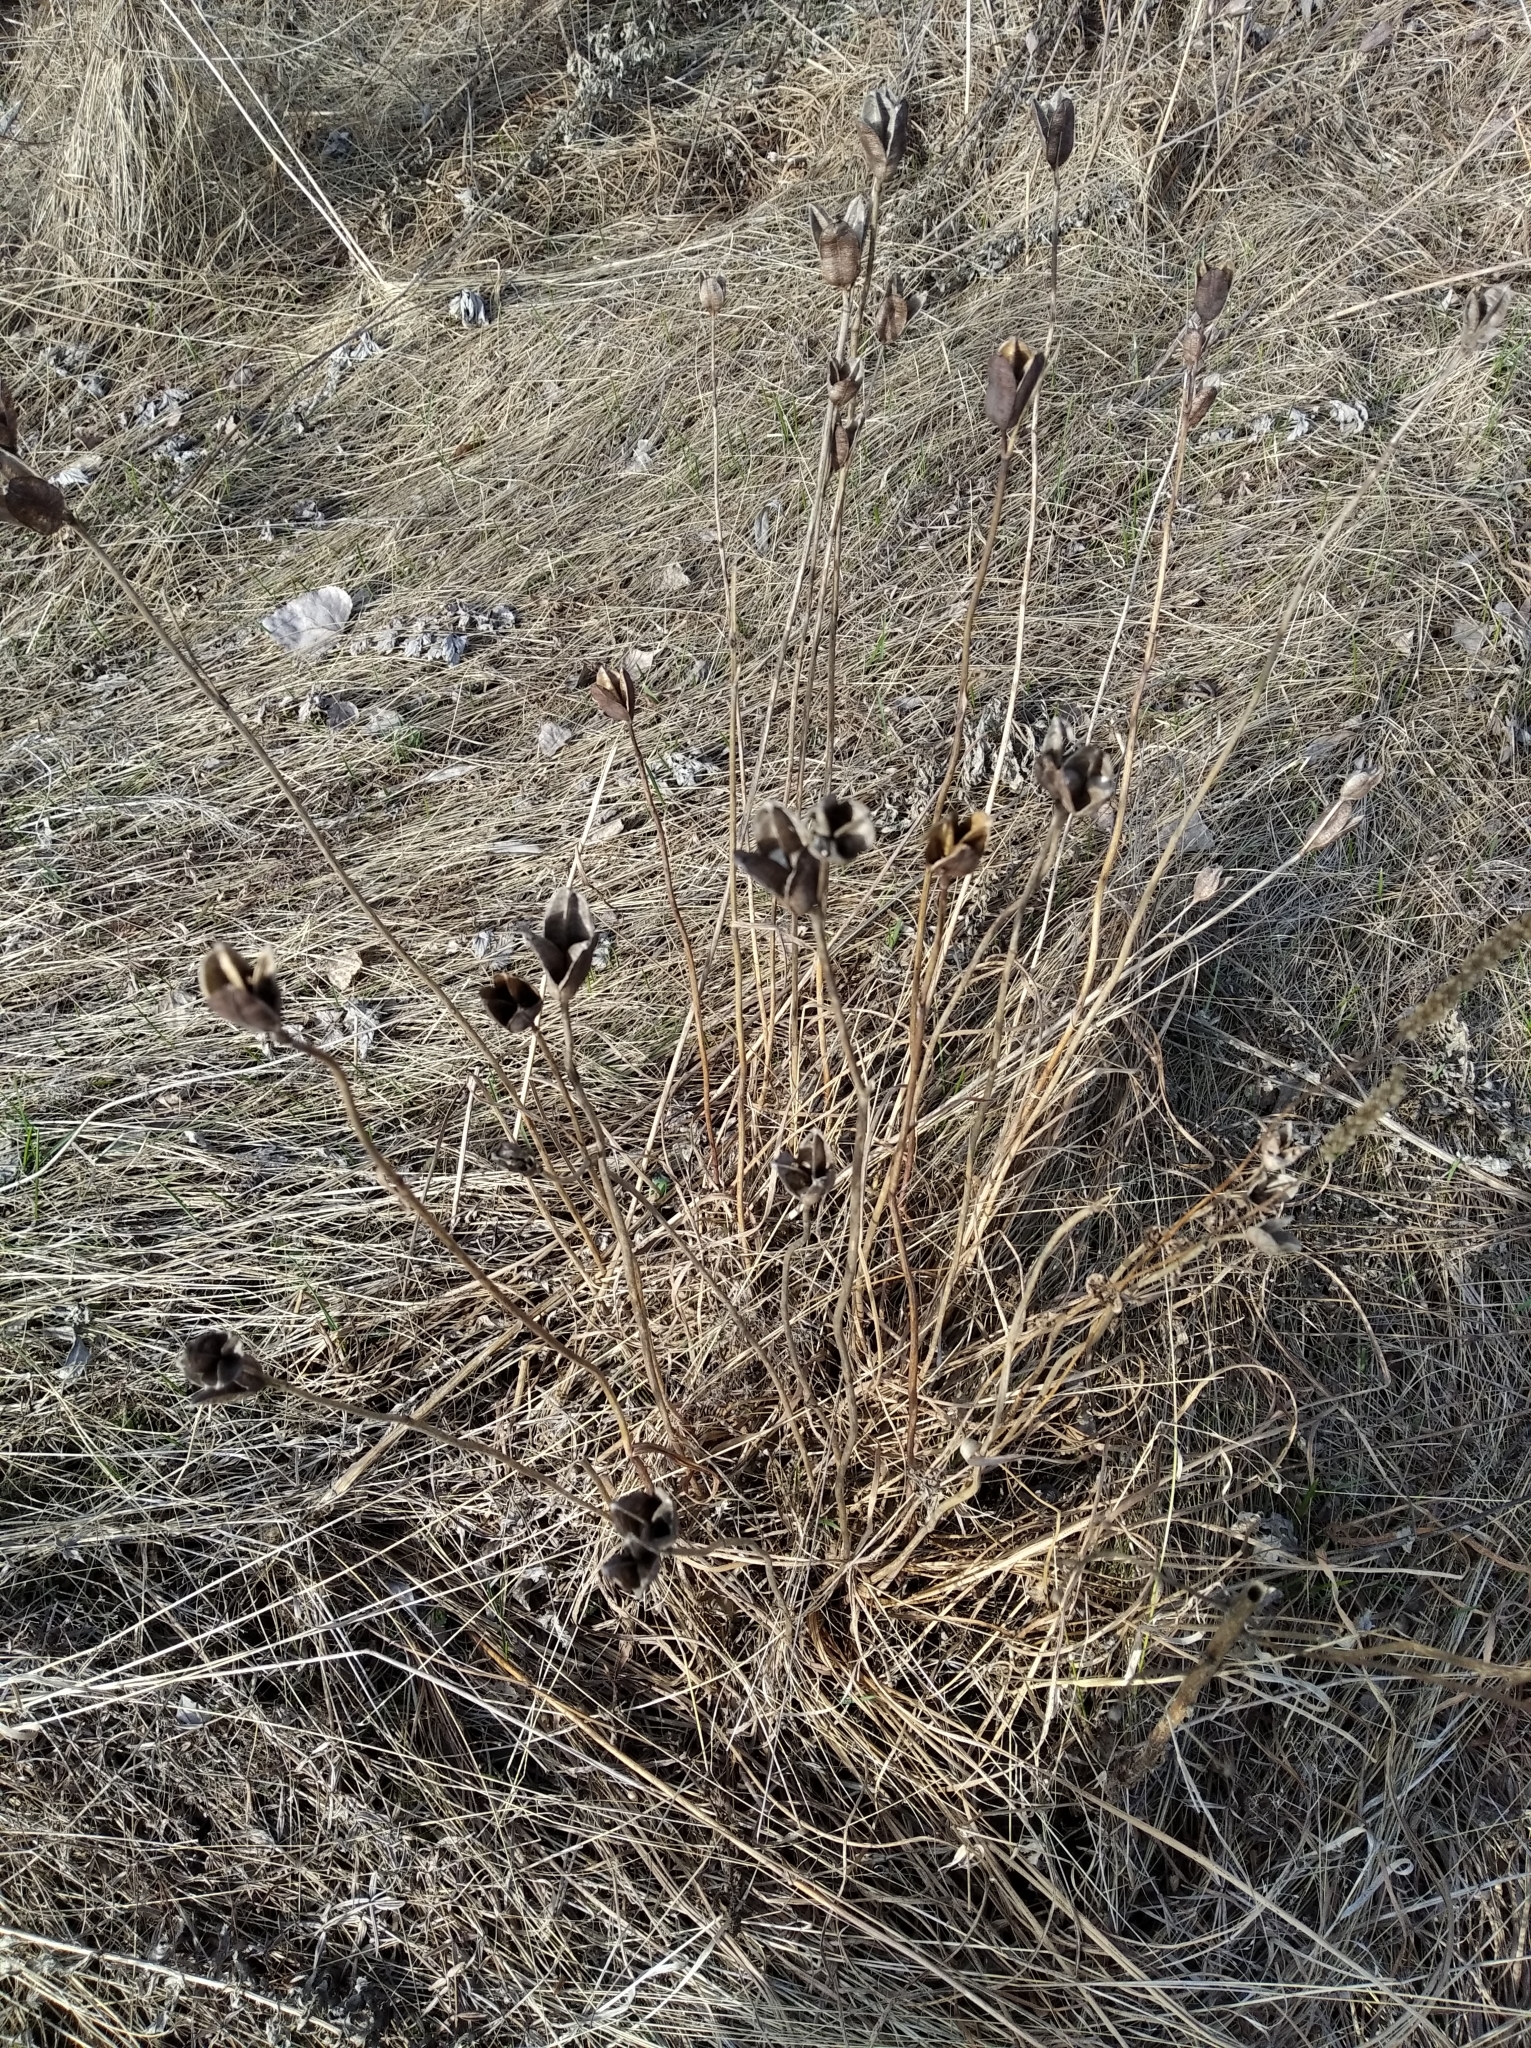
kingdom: Plantae
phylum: Tracheophyta
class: Liliopsida
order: Asparagales
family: Iridaceae
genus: Iris
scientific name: Iris sibirica
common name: Siberian iris
